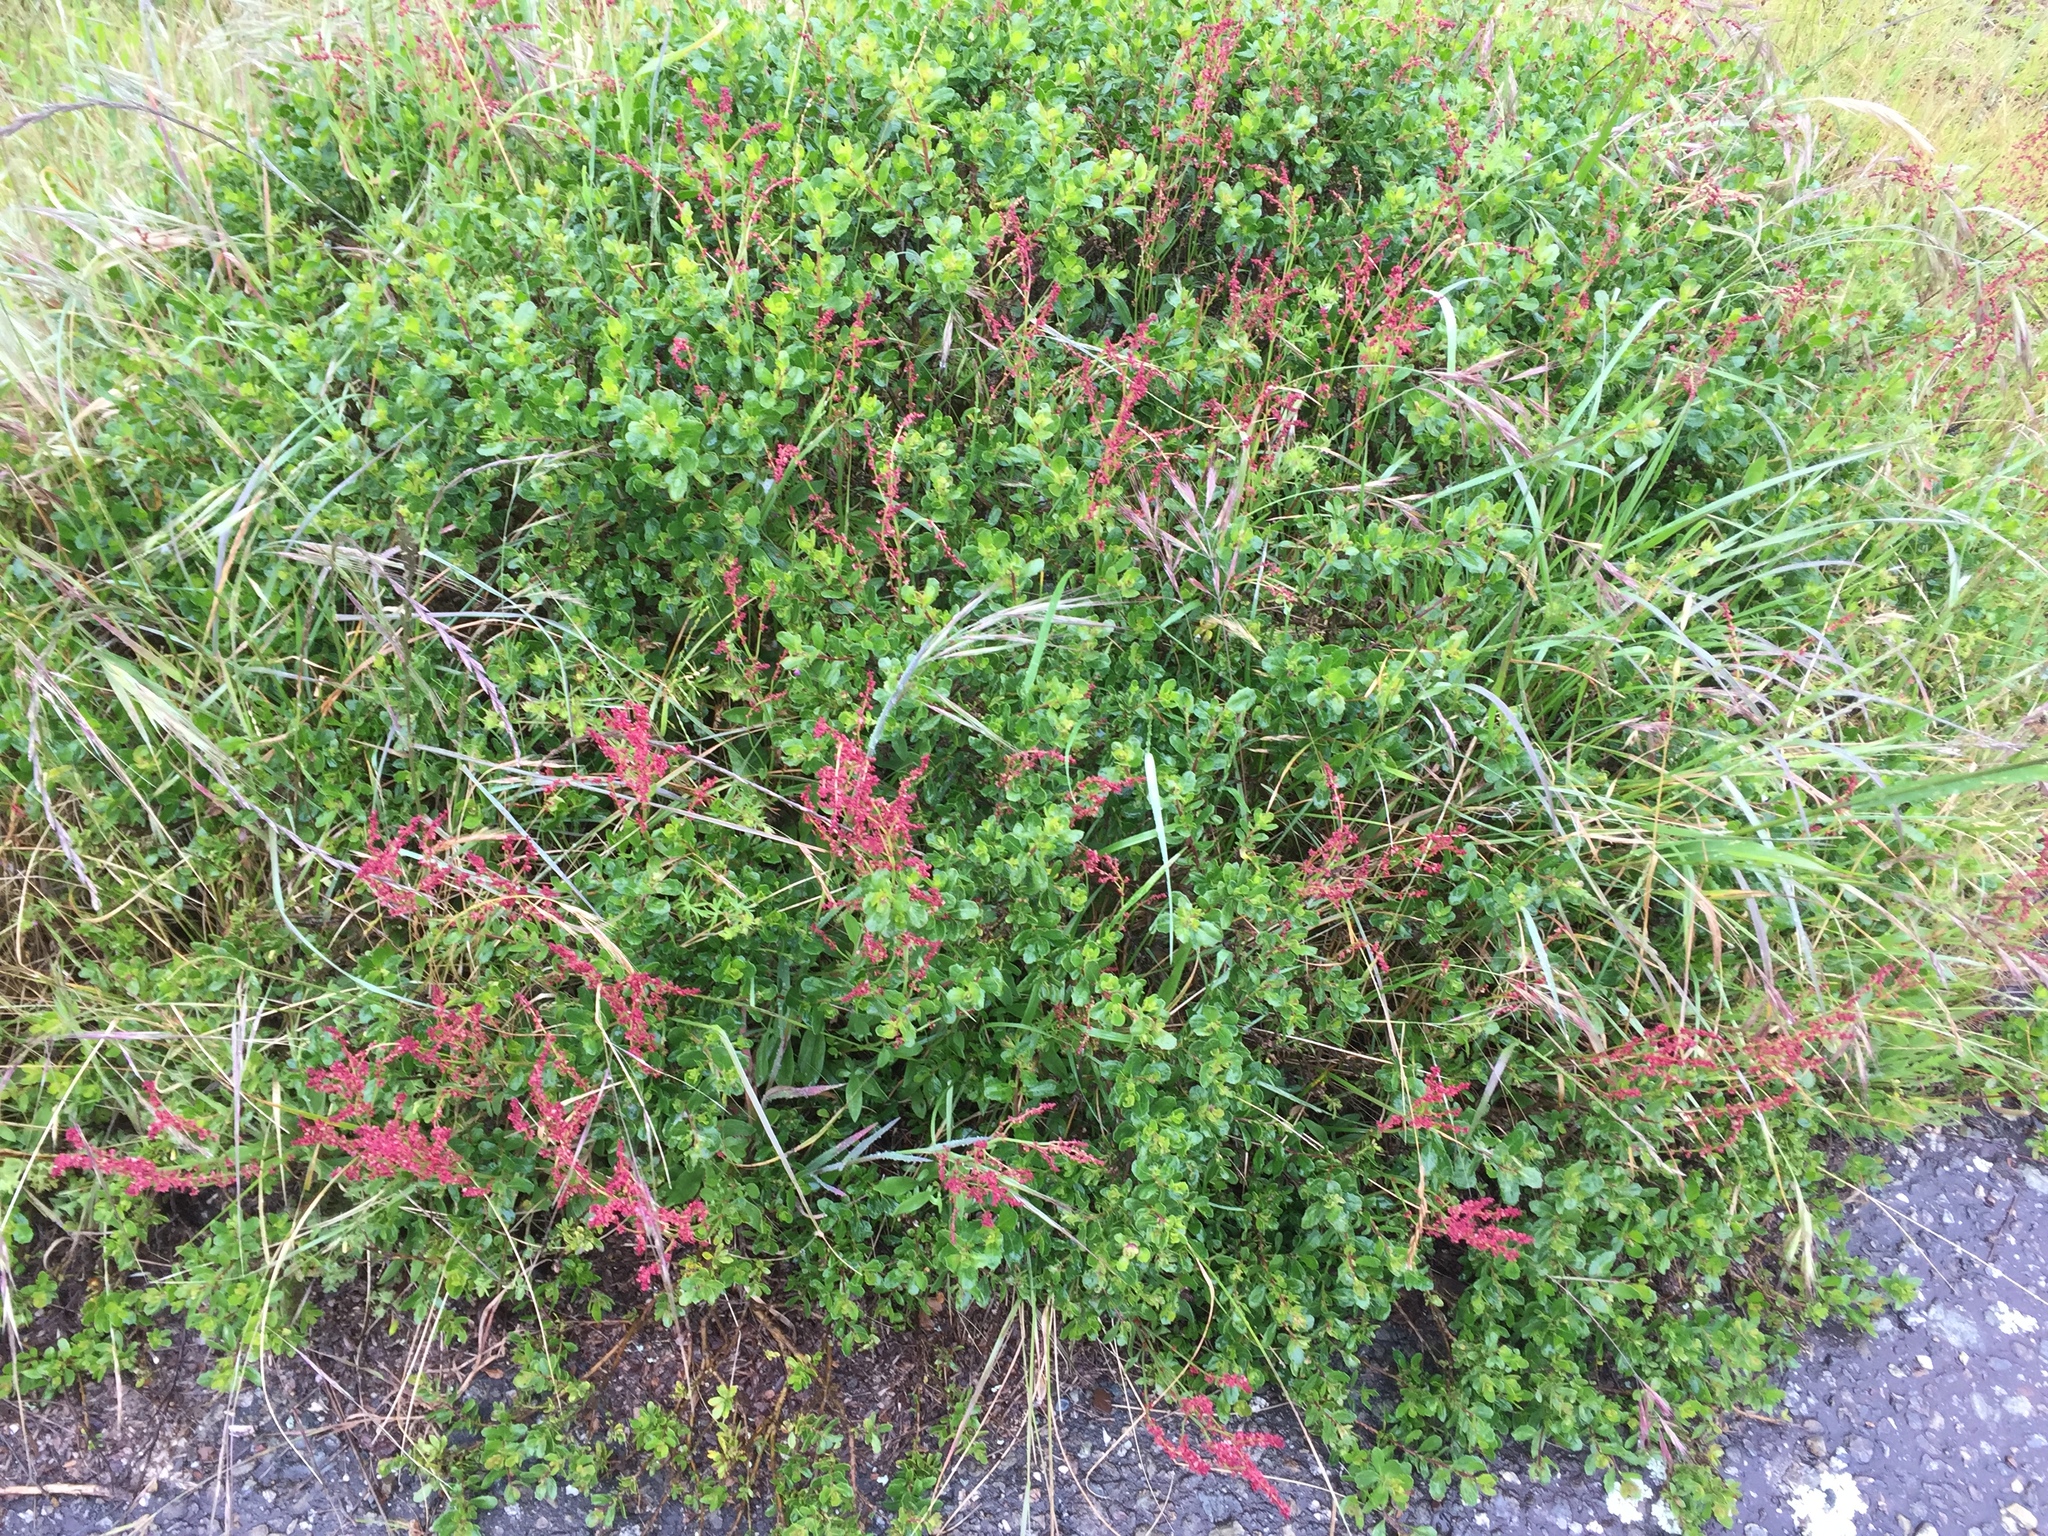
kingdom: Plantae
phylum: Tracheophyta
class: Magnoliopsida
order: Caryophyllales
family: Polygonaceae
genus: Rumex
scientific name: Rumex acetosella
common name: Common sheep sorrel
